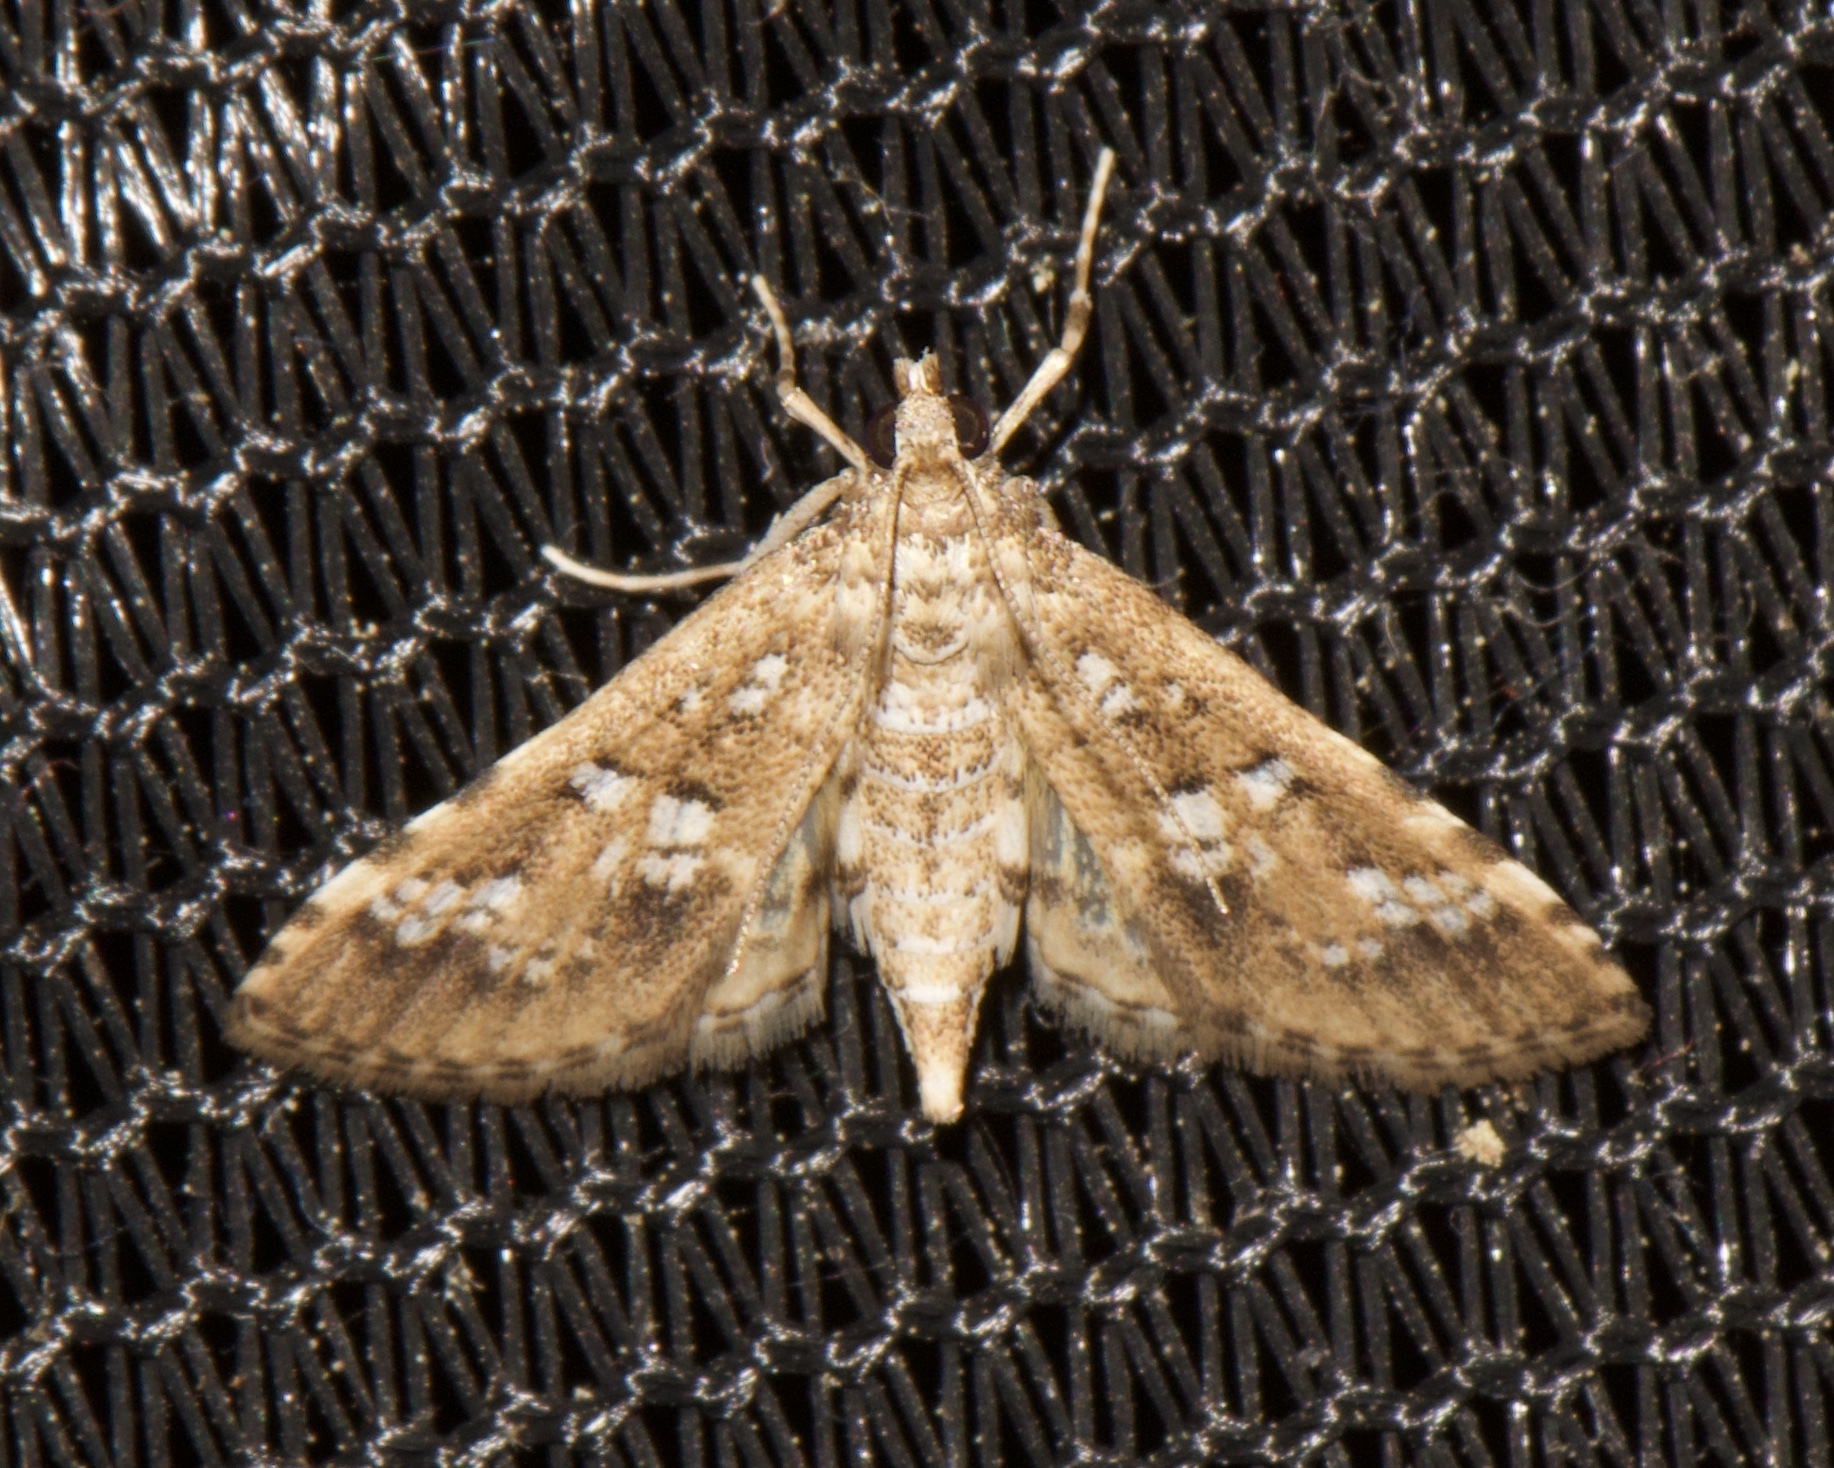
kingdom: Animalia
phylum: Arthropoda
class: Insecta
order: Lepidoptera
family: Crambidae
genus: Samea
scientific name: Samea multiplicalis
